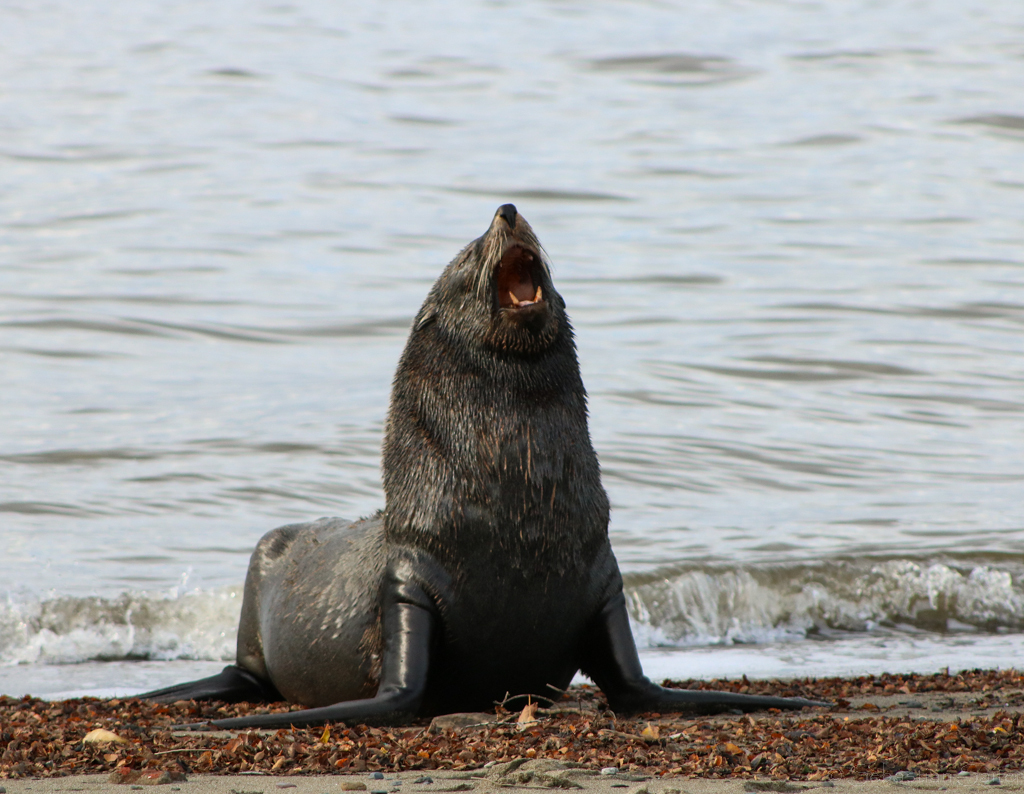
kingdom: Animalia
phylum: Chordata
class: Mammalia
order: Carnivora
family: Otariidae
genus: Arctocephalus
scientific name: Arctocephalus australis
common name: South american fur seal
